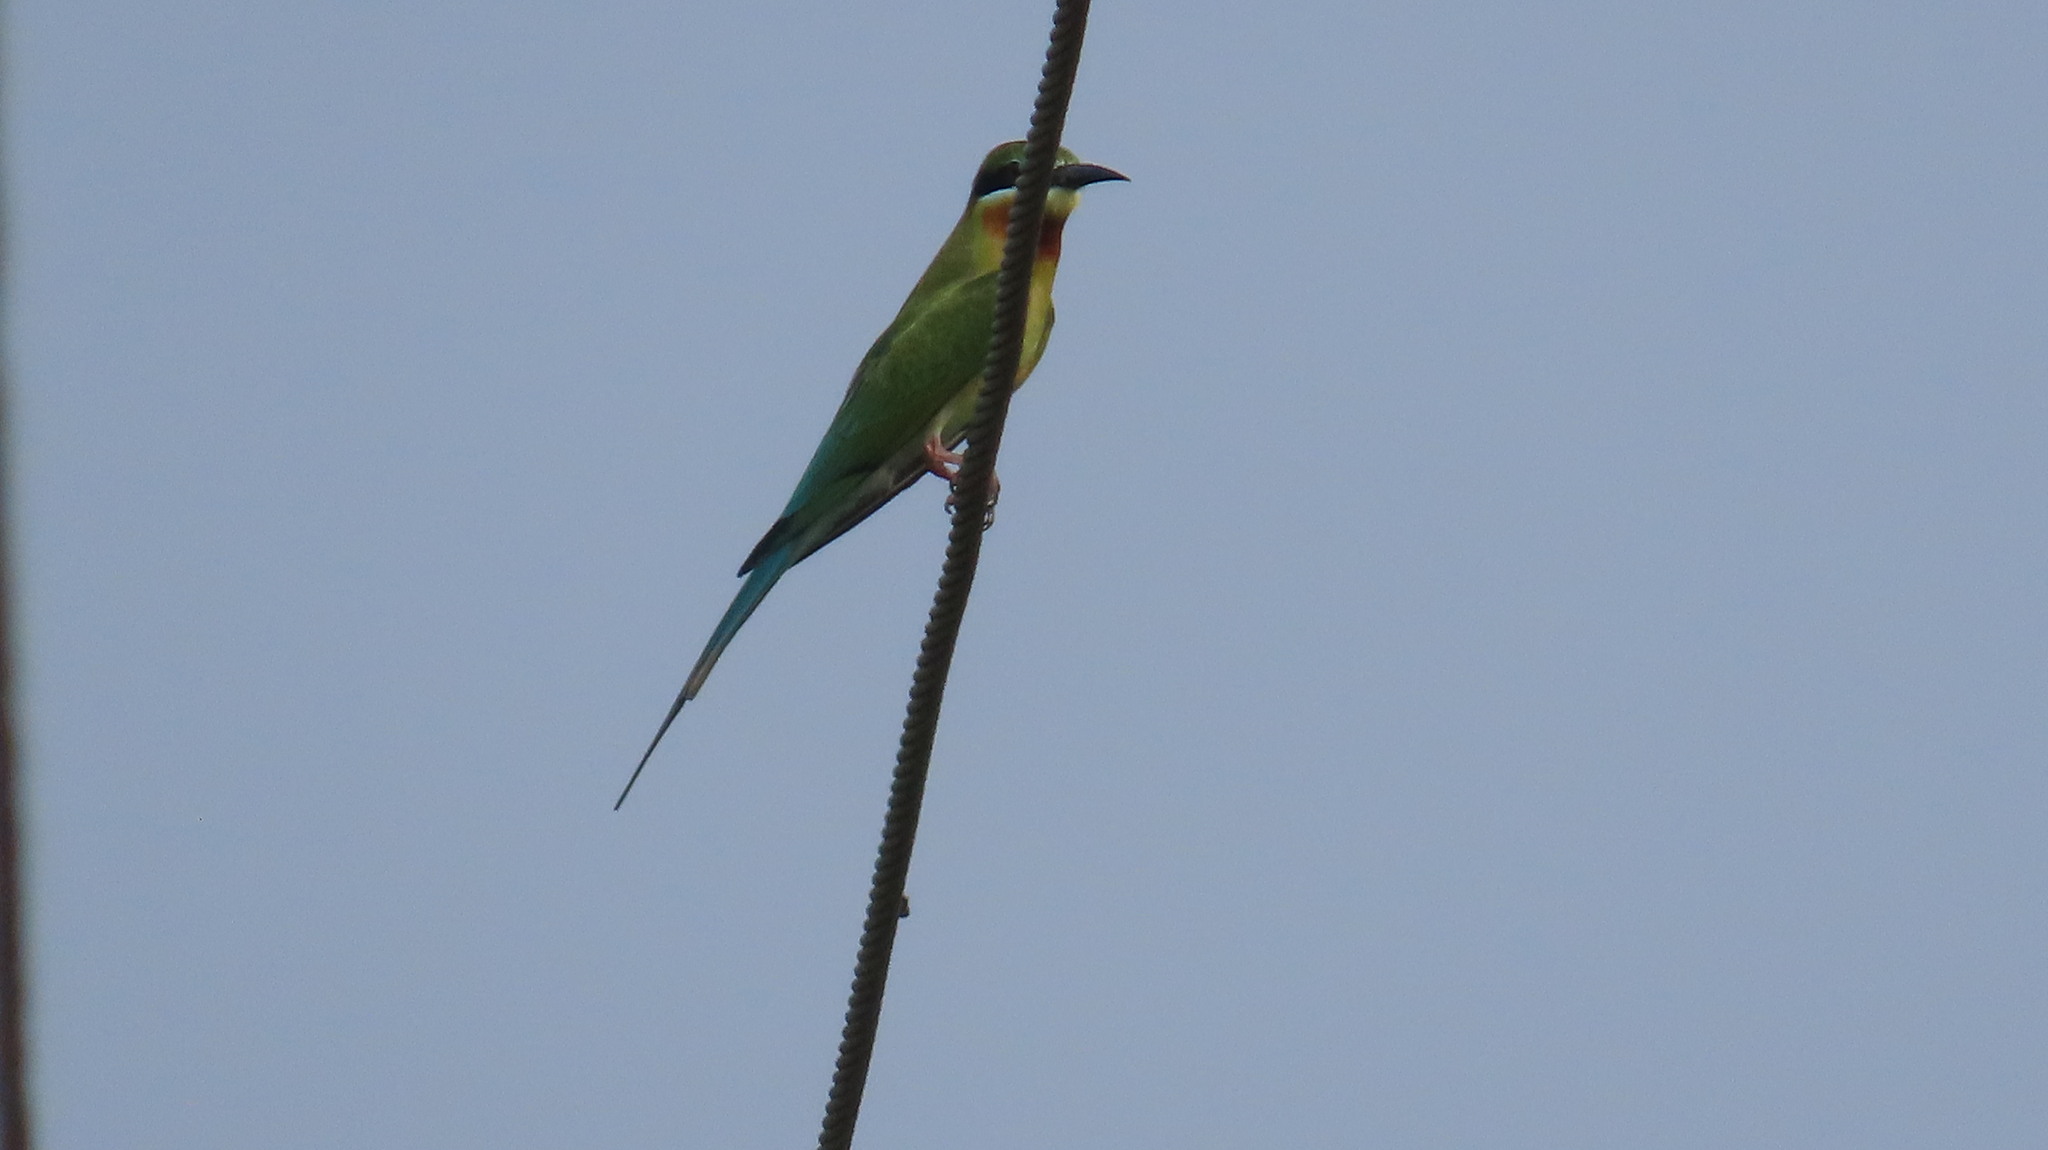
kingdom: Animalia
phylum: Chordata
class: Aves
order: Coraciiformes
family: Meropidae
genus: Merops
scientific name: Merops philippinus
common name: Blue-tailed bee-eater
